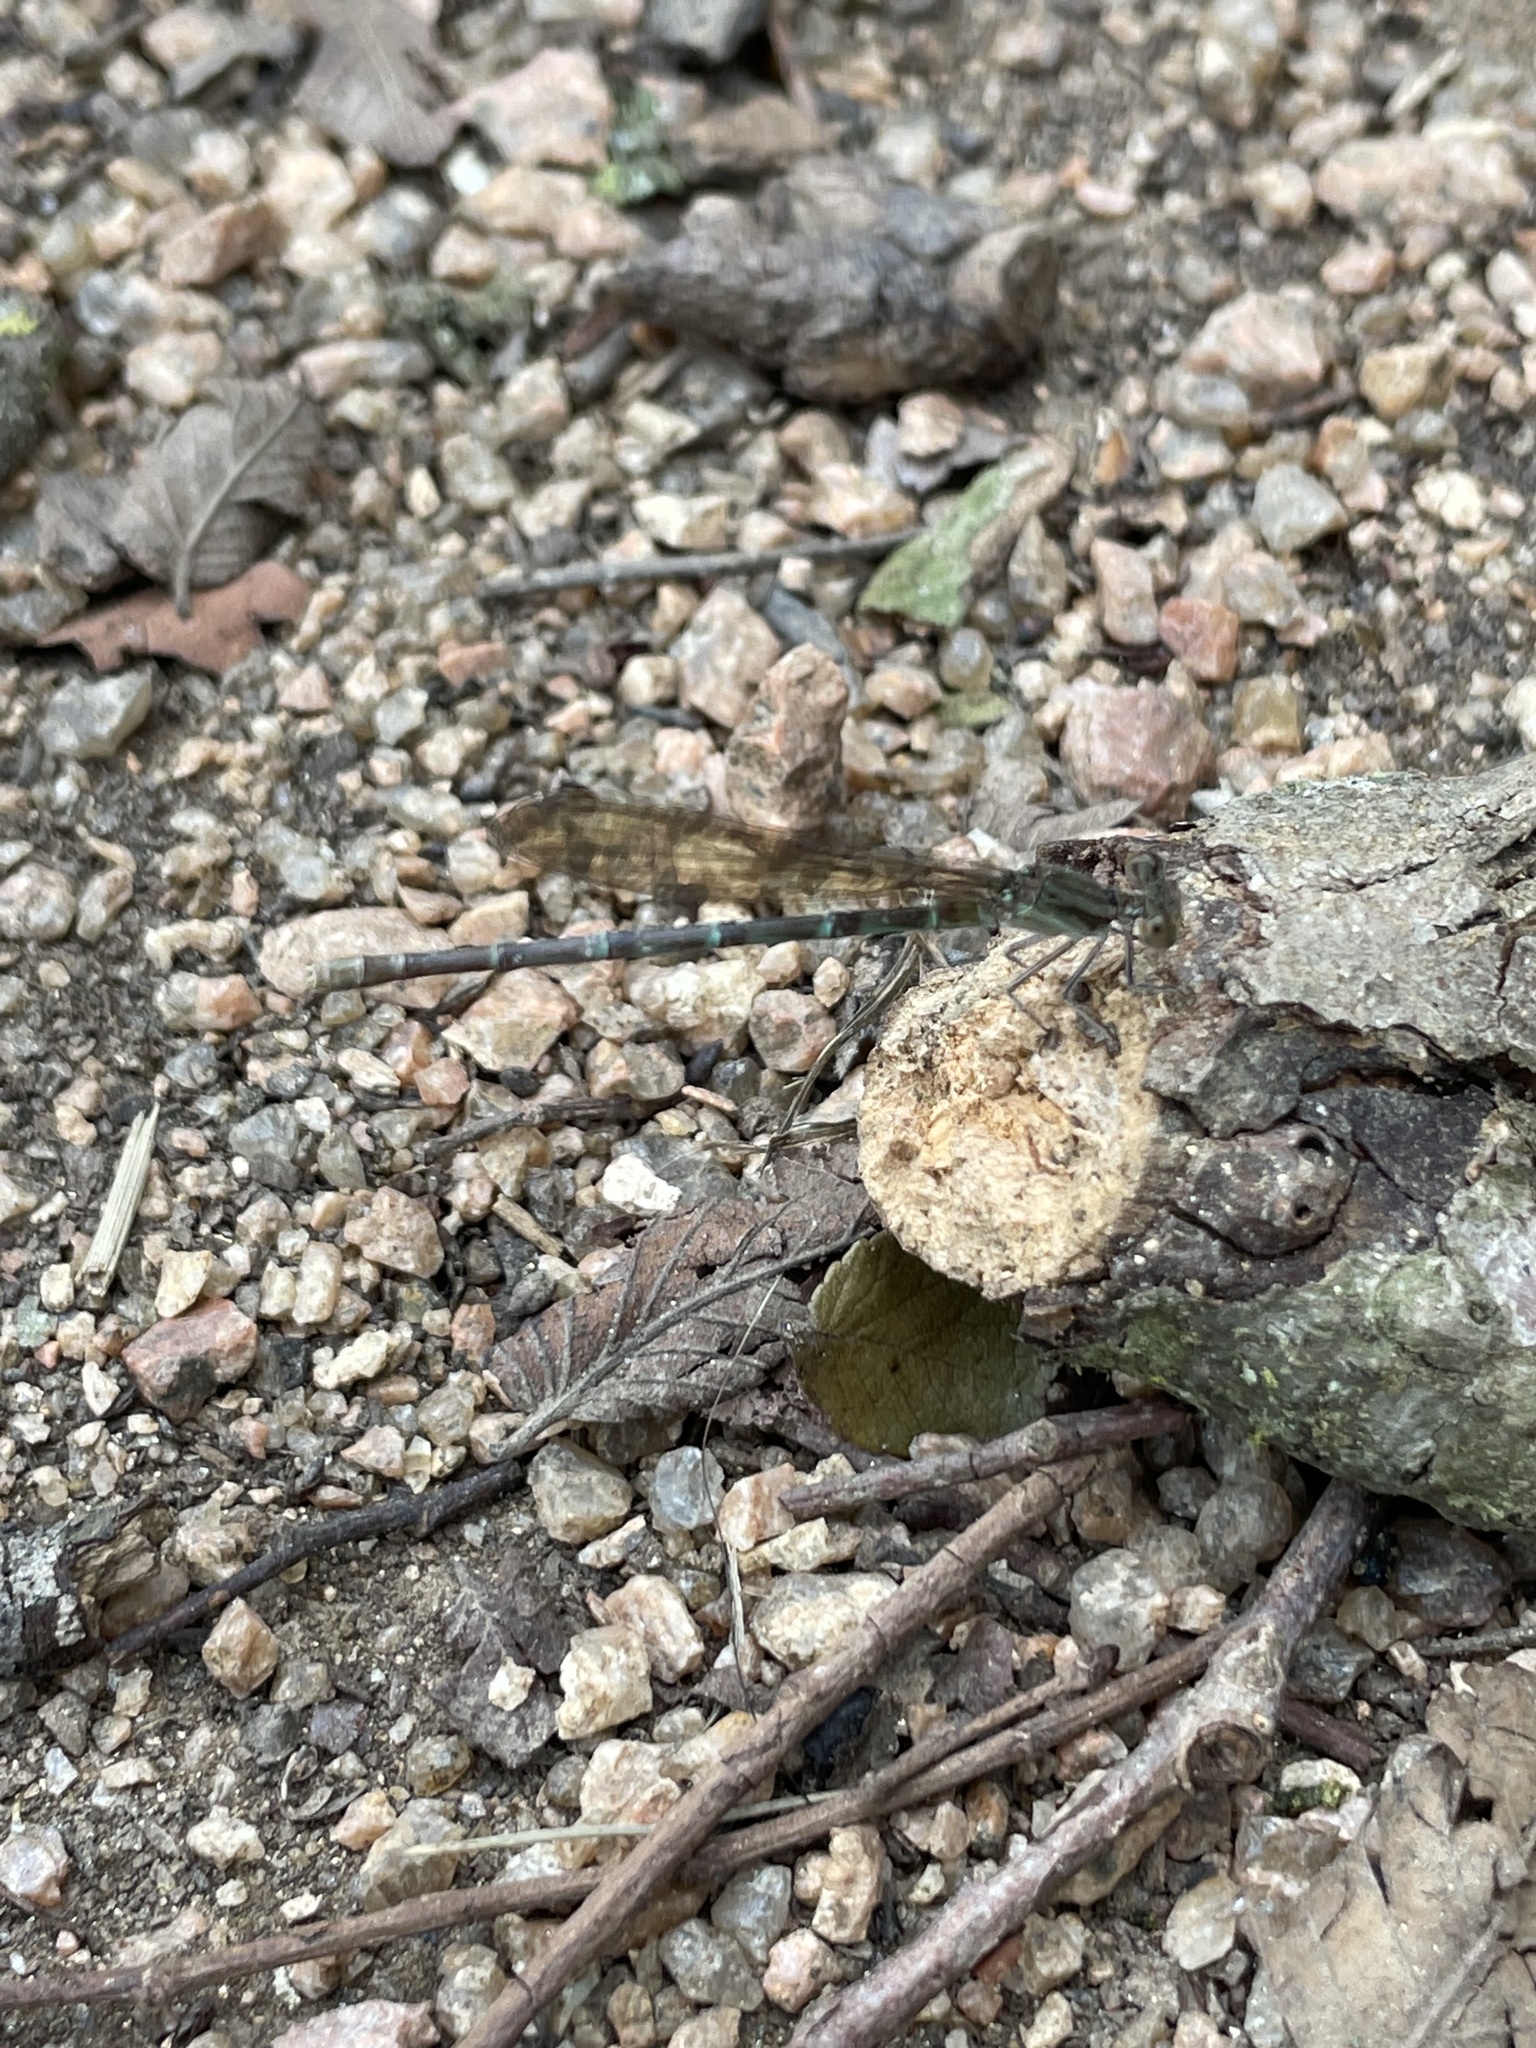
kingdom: Animalia
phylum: Arthropoda
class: Insecta
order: Odonata
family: Coenagrionidae
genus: Argia
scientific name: Argia sedula
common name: Blue-ringed dancer
